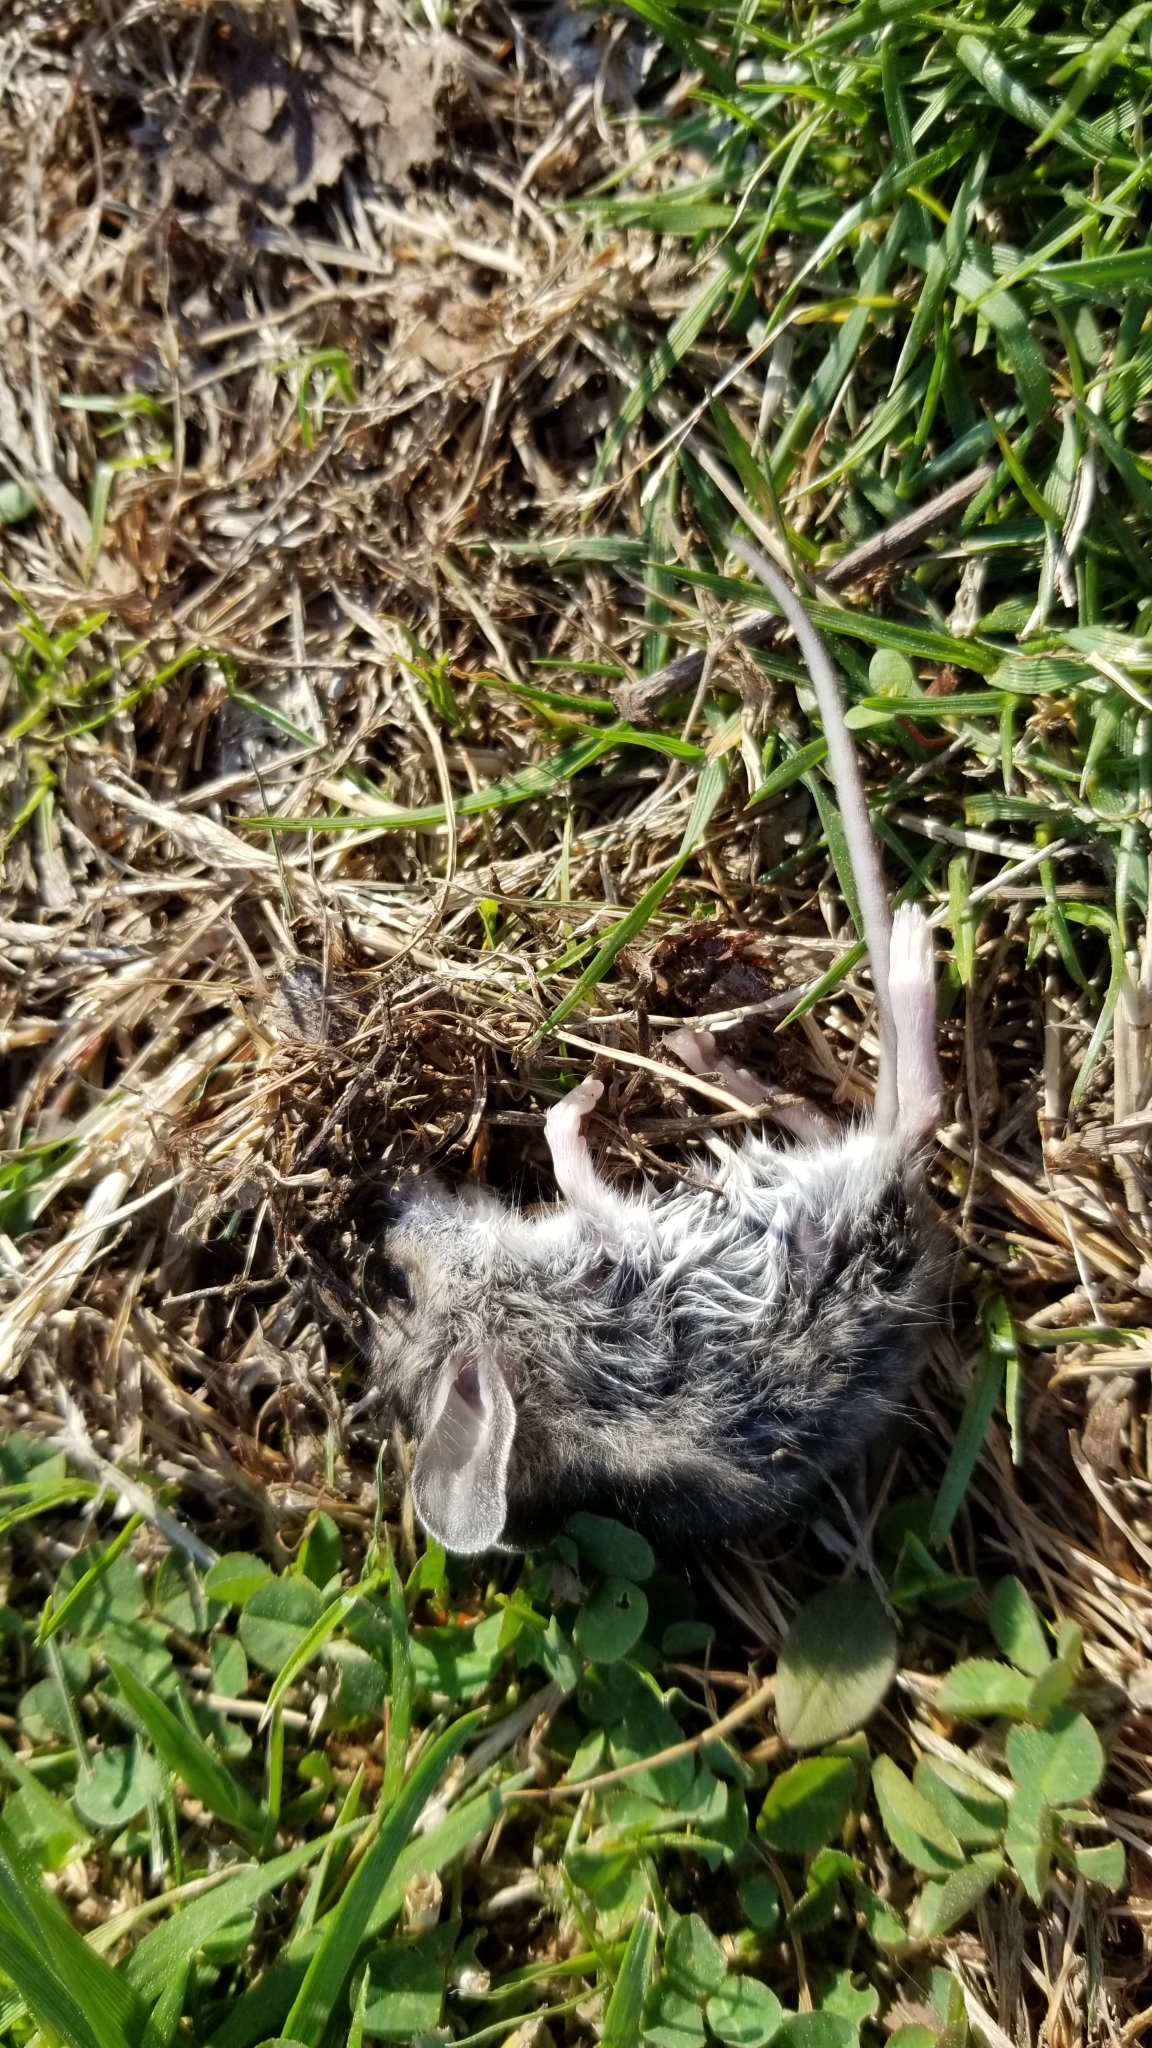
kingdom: Animalia
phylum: Chordata
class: Mammalia
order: Rodentia
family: Cricetidae
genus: Peromyscus
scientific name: Peromyscus leucopus
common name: White-footed deermouse
